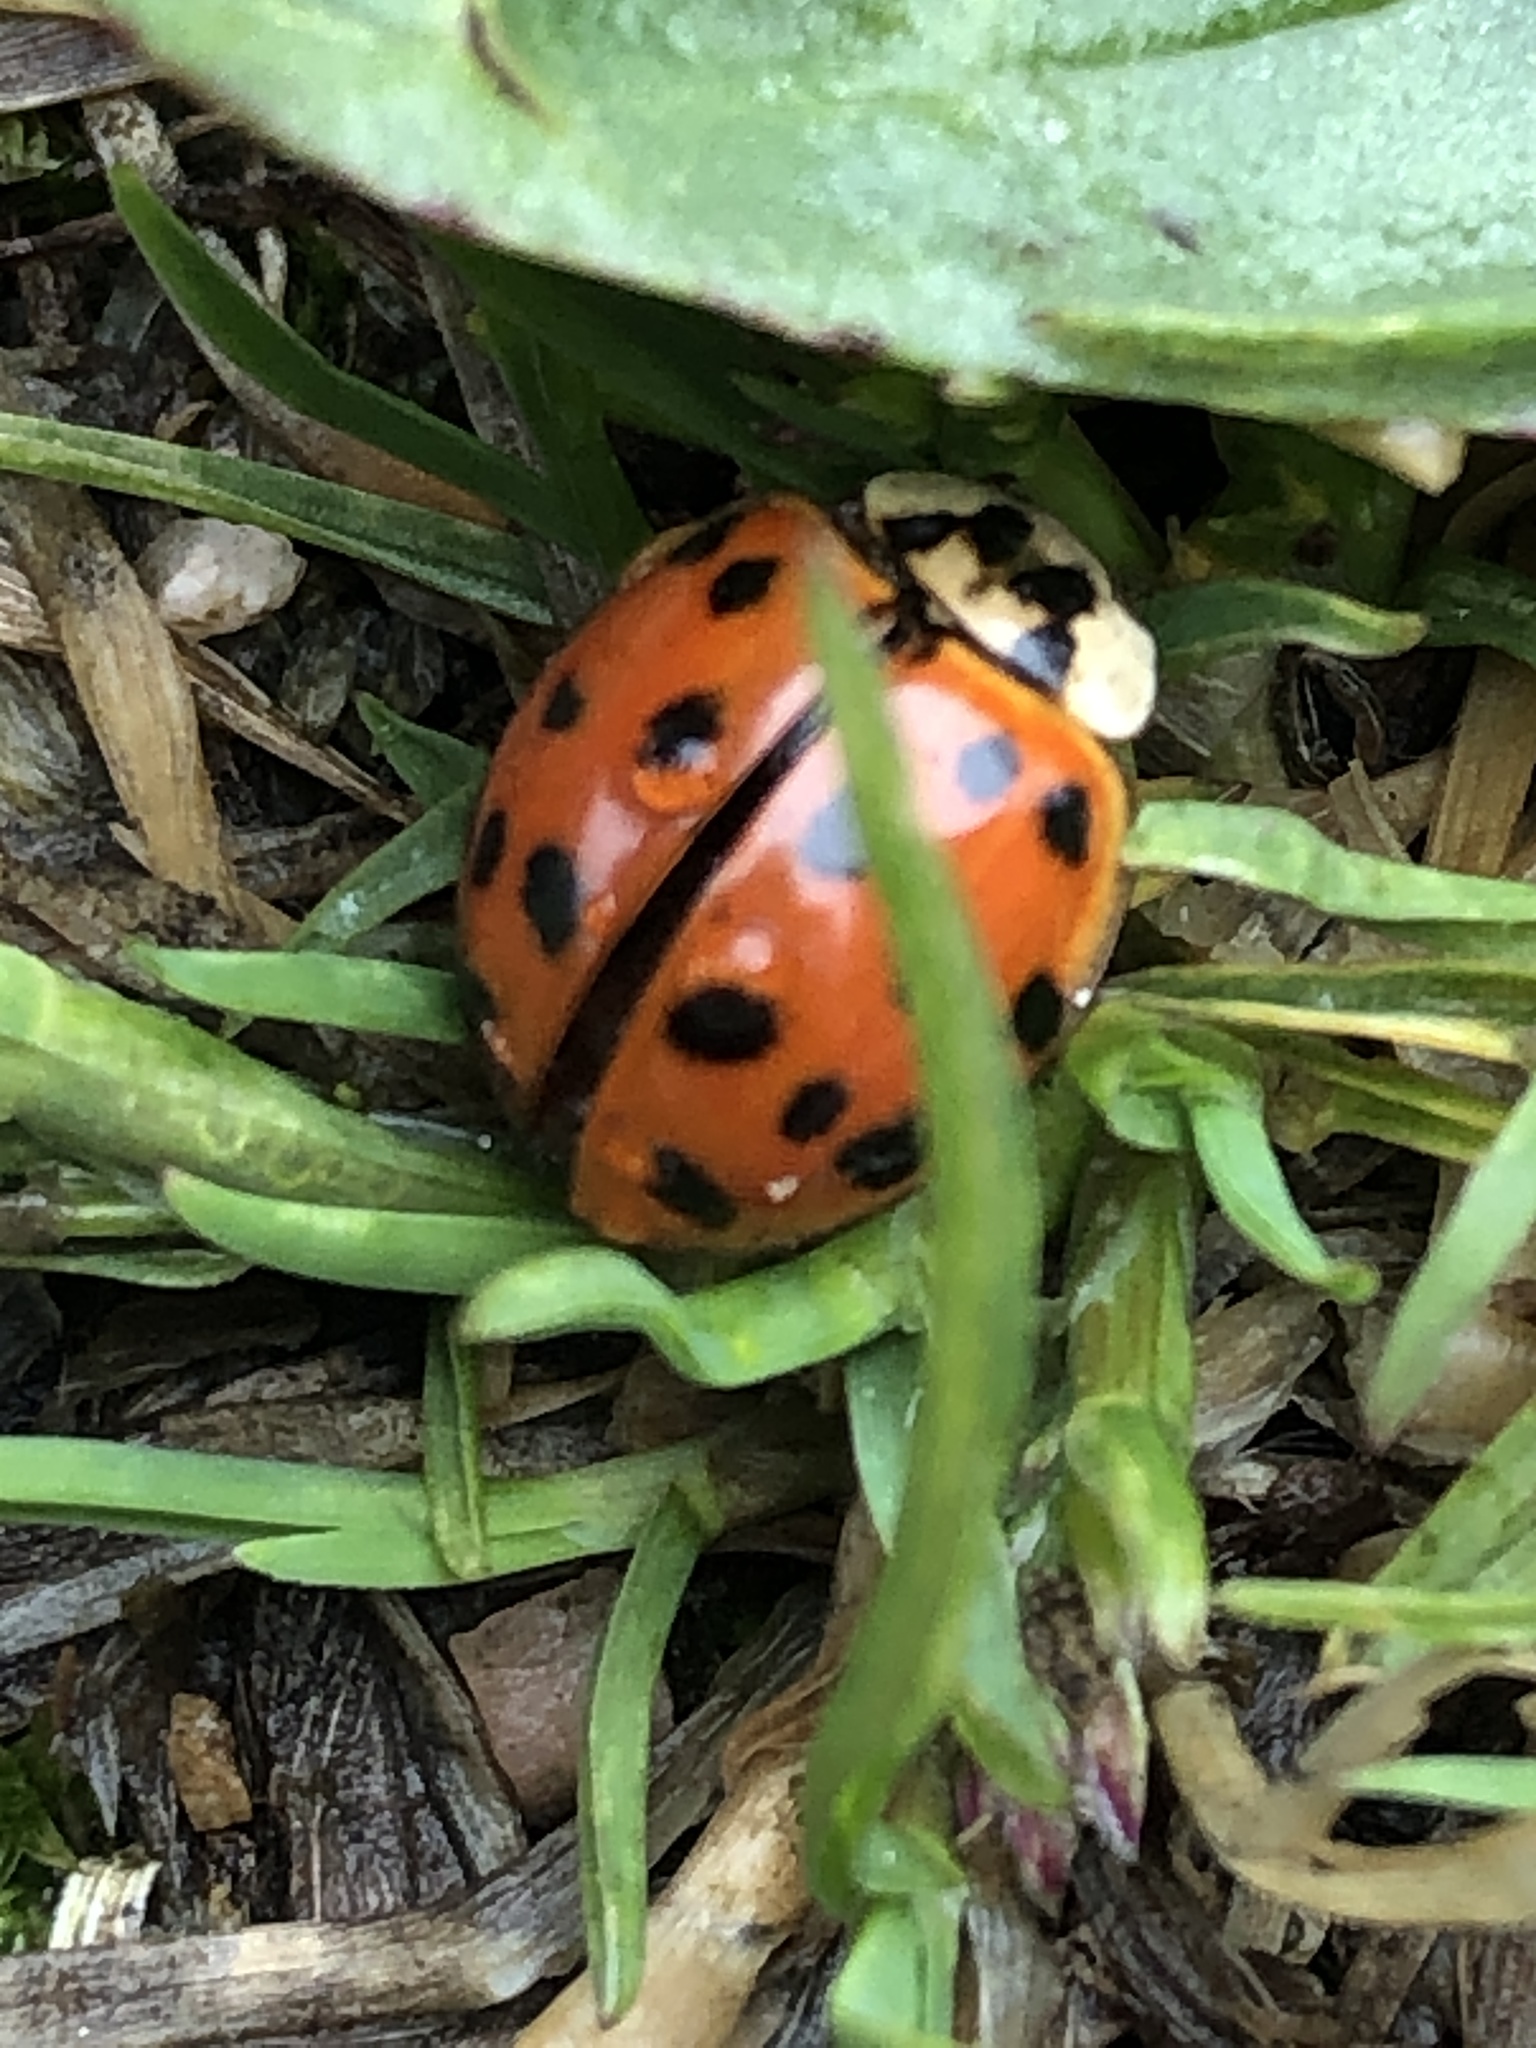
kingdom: Animalia
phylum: Arthropoda
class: Insecta
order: Coleoptera
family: Coccinellidae
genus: Harmonia
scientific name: Harmonia axyridis
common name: Harlequin ladybird
